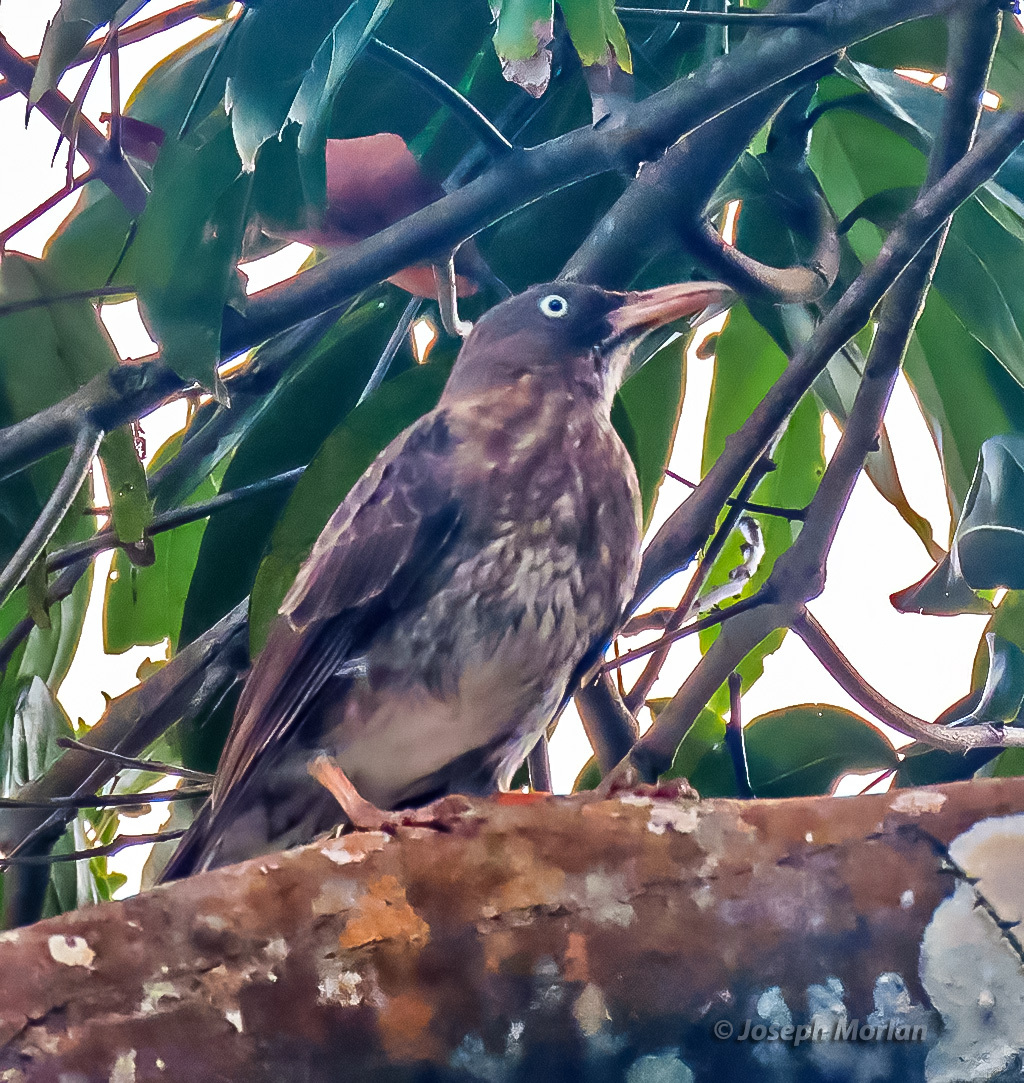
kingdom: Animalia
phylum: Chordata
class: Aves
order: Passeriformes
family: Mimidae
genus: Margarops
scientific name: Margarops fuscatus
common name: Pearly-eyed thrasher
